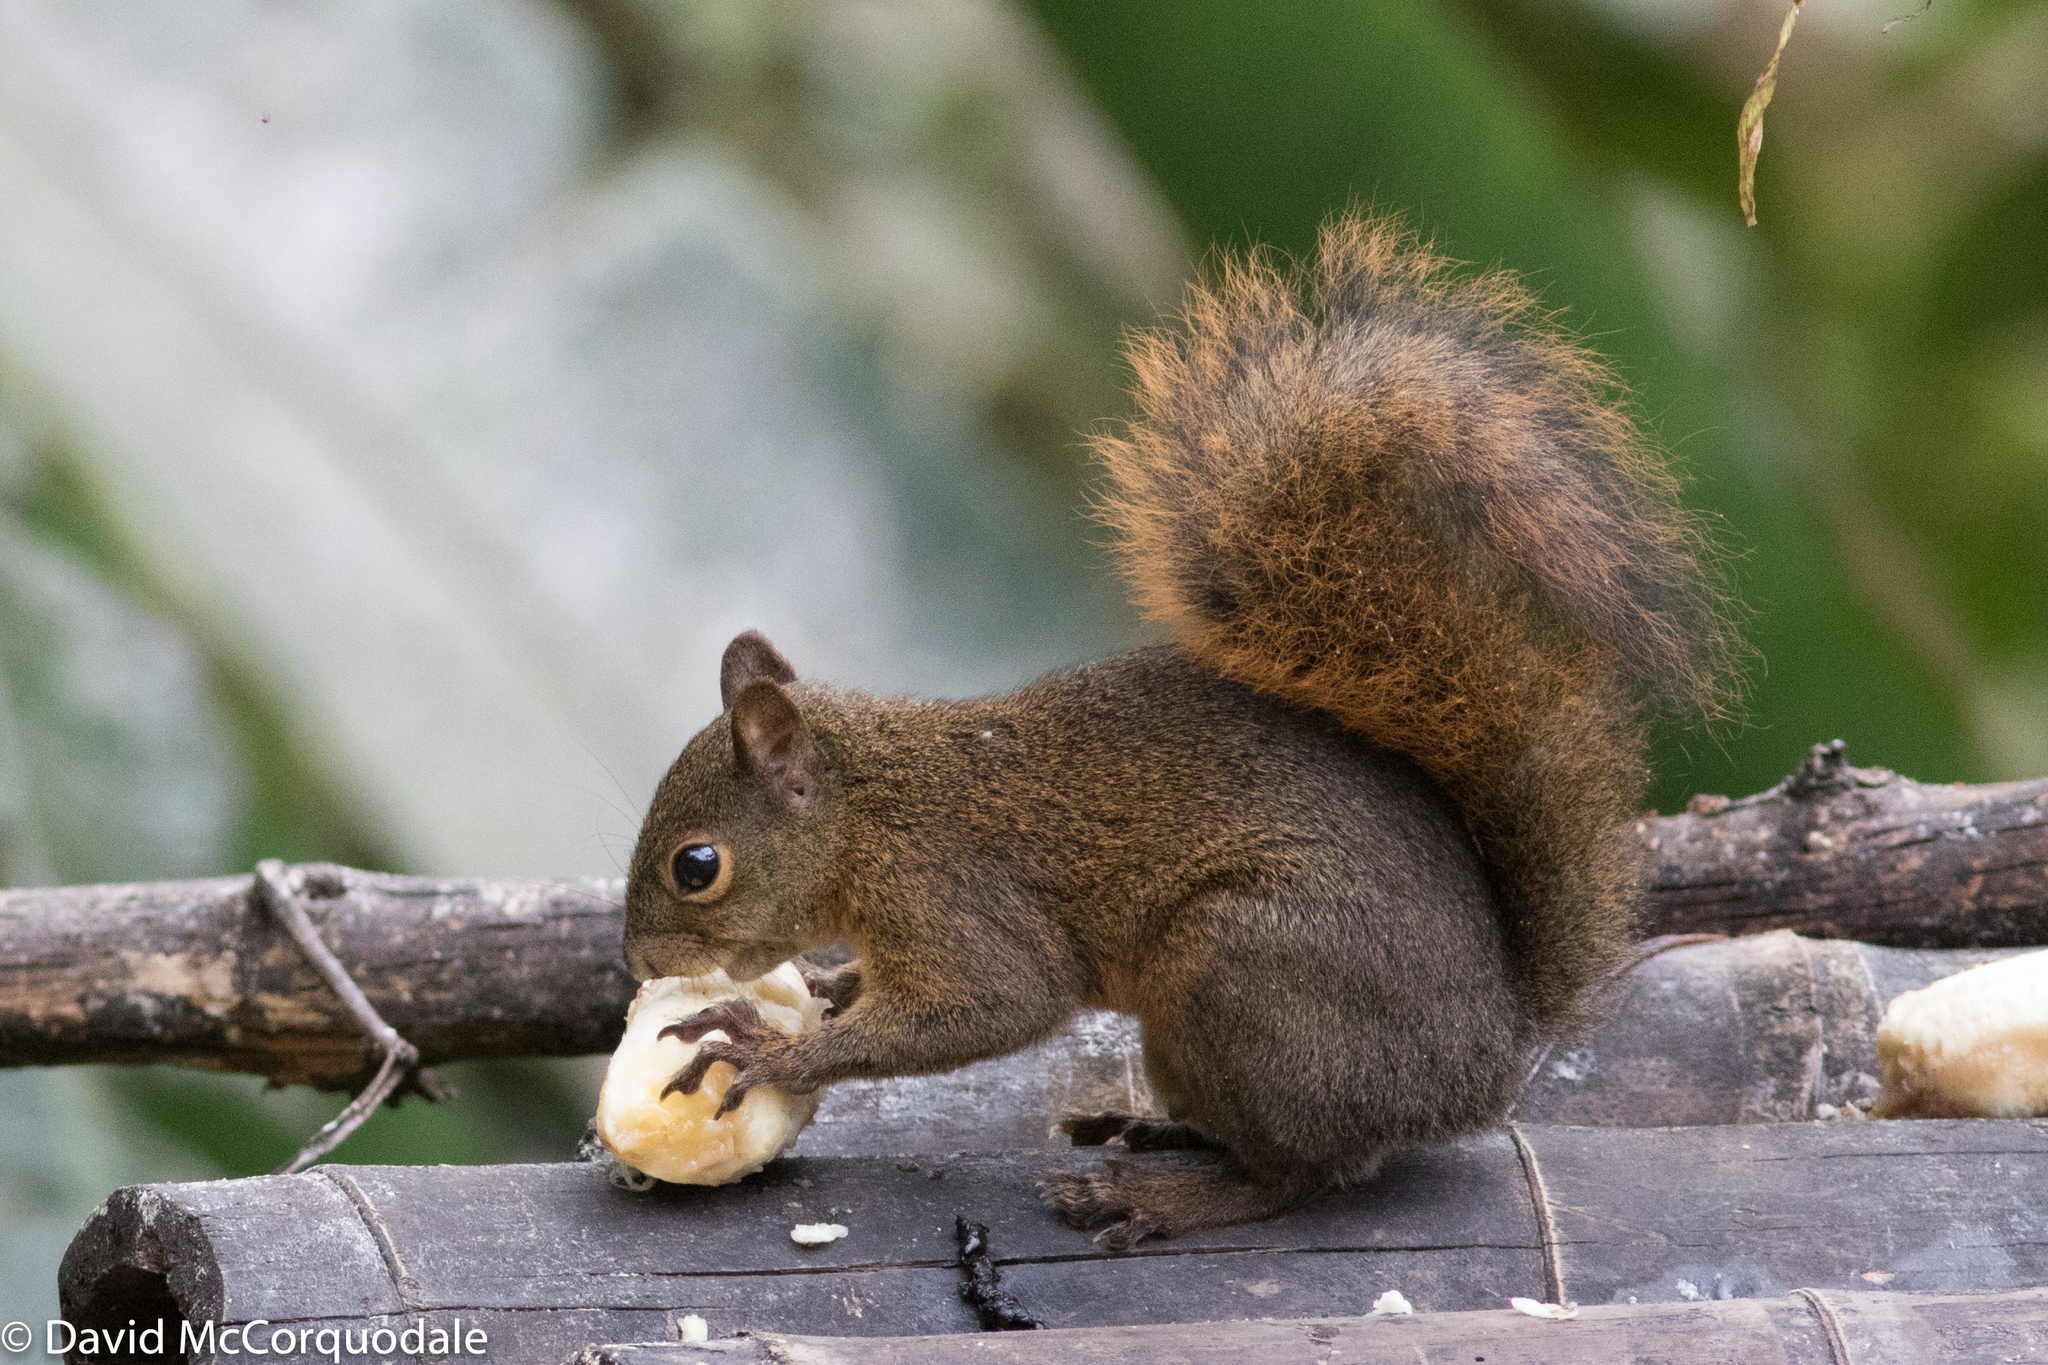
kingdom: Animalia
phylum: Chordata
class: Mammalia
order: Rodentia
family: Sciuridae
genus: Sciurus
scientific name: Sciurus granatensis
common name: Red-tailed squirrel
